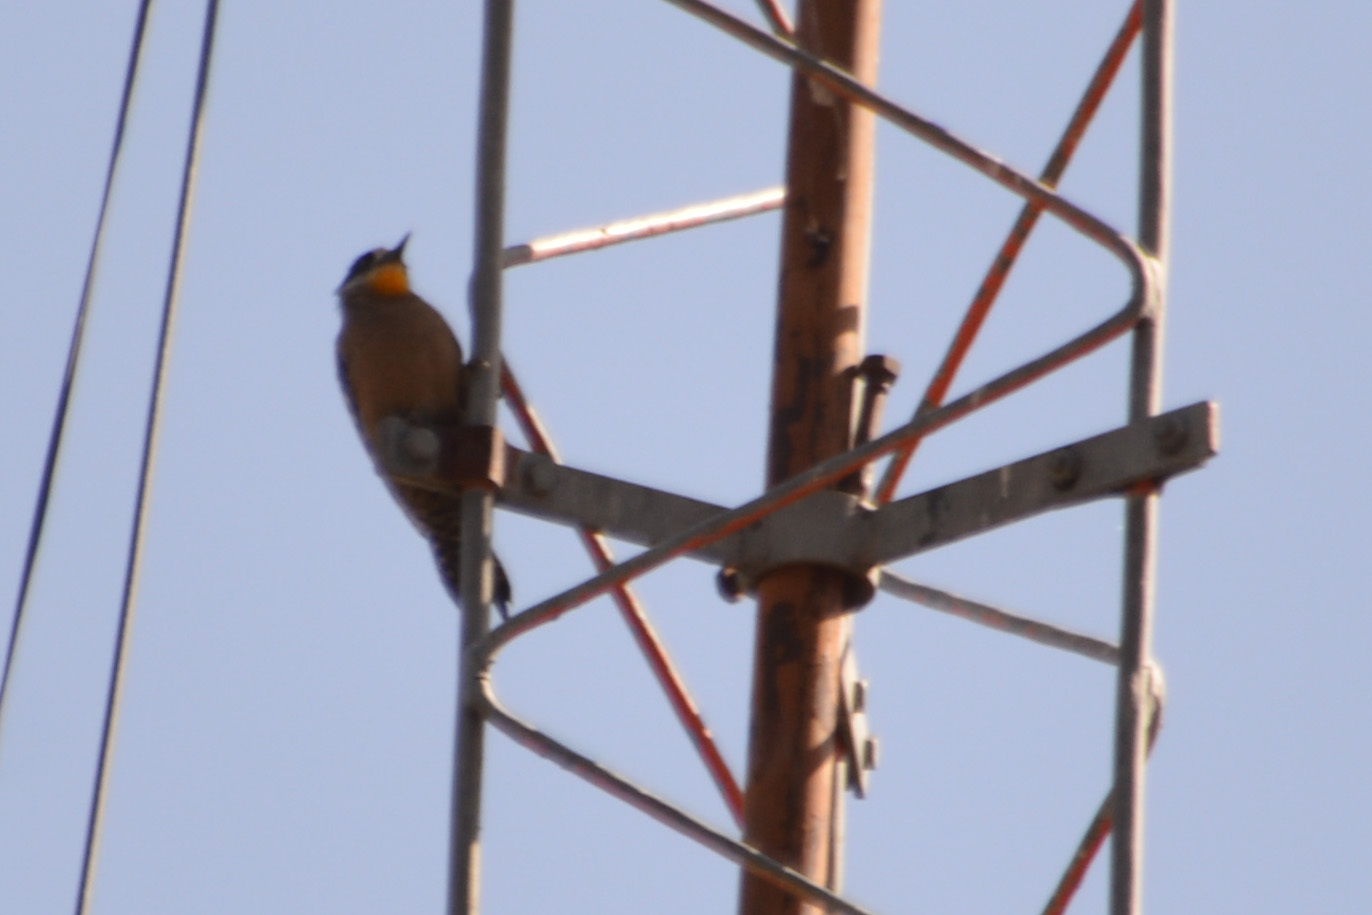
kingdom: Animalia
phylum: Chordata
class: Aves
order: Piciformes
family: Picidae
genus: Melanerpes
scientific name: Melanerpes cactorum
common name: White-fronted woodpecker
